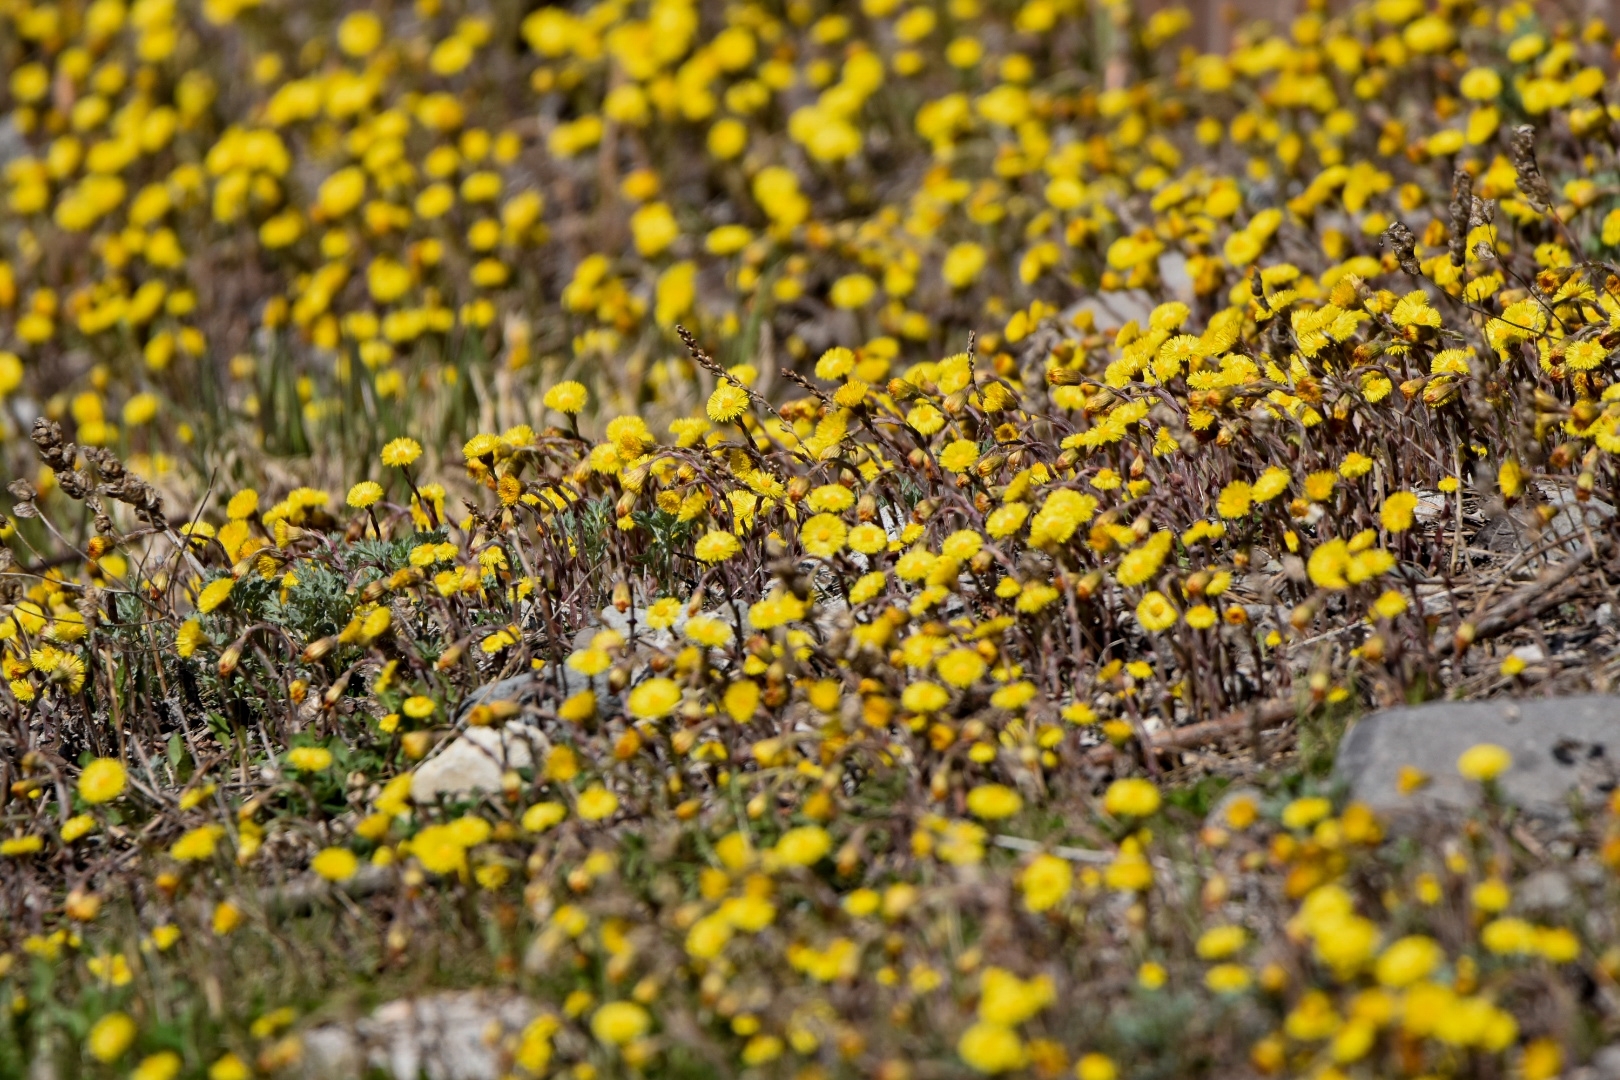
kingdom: Plantae
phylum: Tracheophyta
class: Magnoliopsida
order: Asterales
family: Asteraceae
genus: Tussilago
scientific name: Tussilago farfara
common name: Coltsfoot
